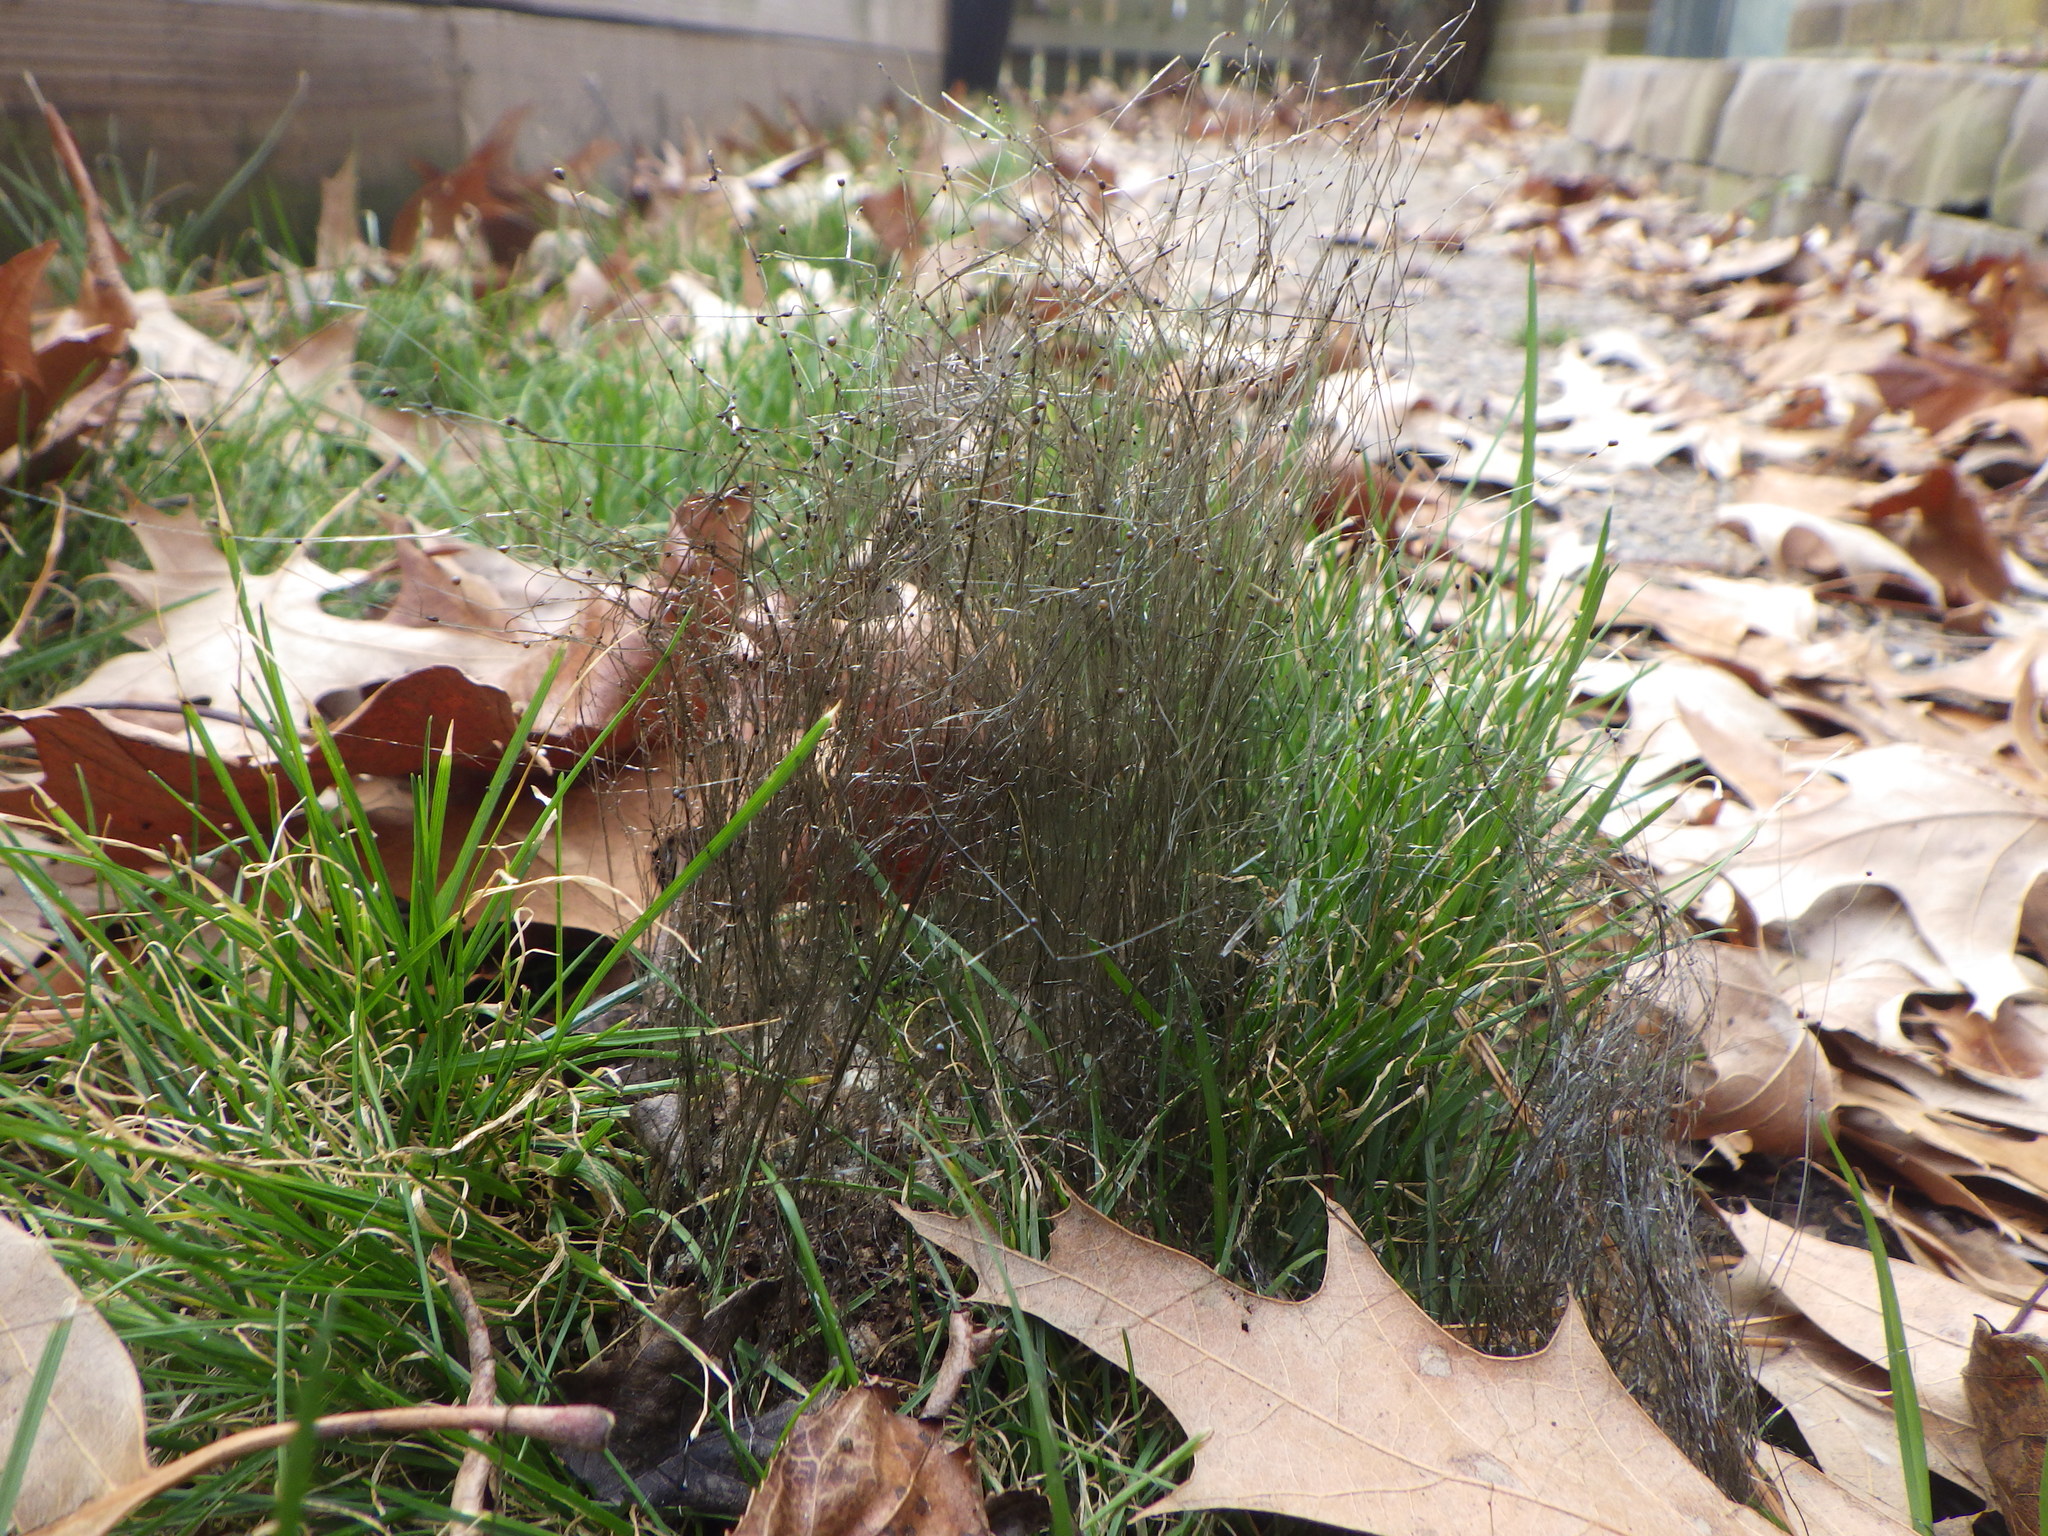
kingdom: Fungi
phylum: Mucoromycota
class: Mucoromycetes
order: Mucorales
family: Phycomycetaceae
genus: Phycomyces
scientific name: Phycomyces
